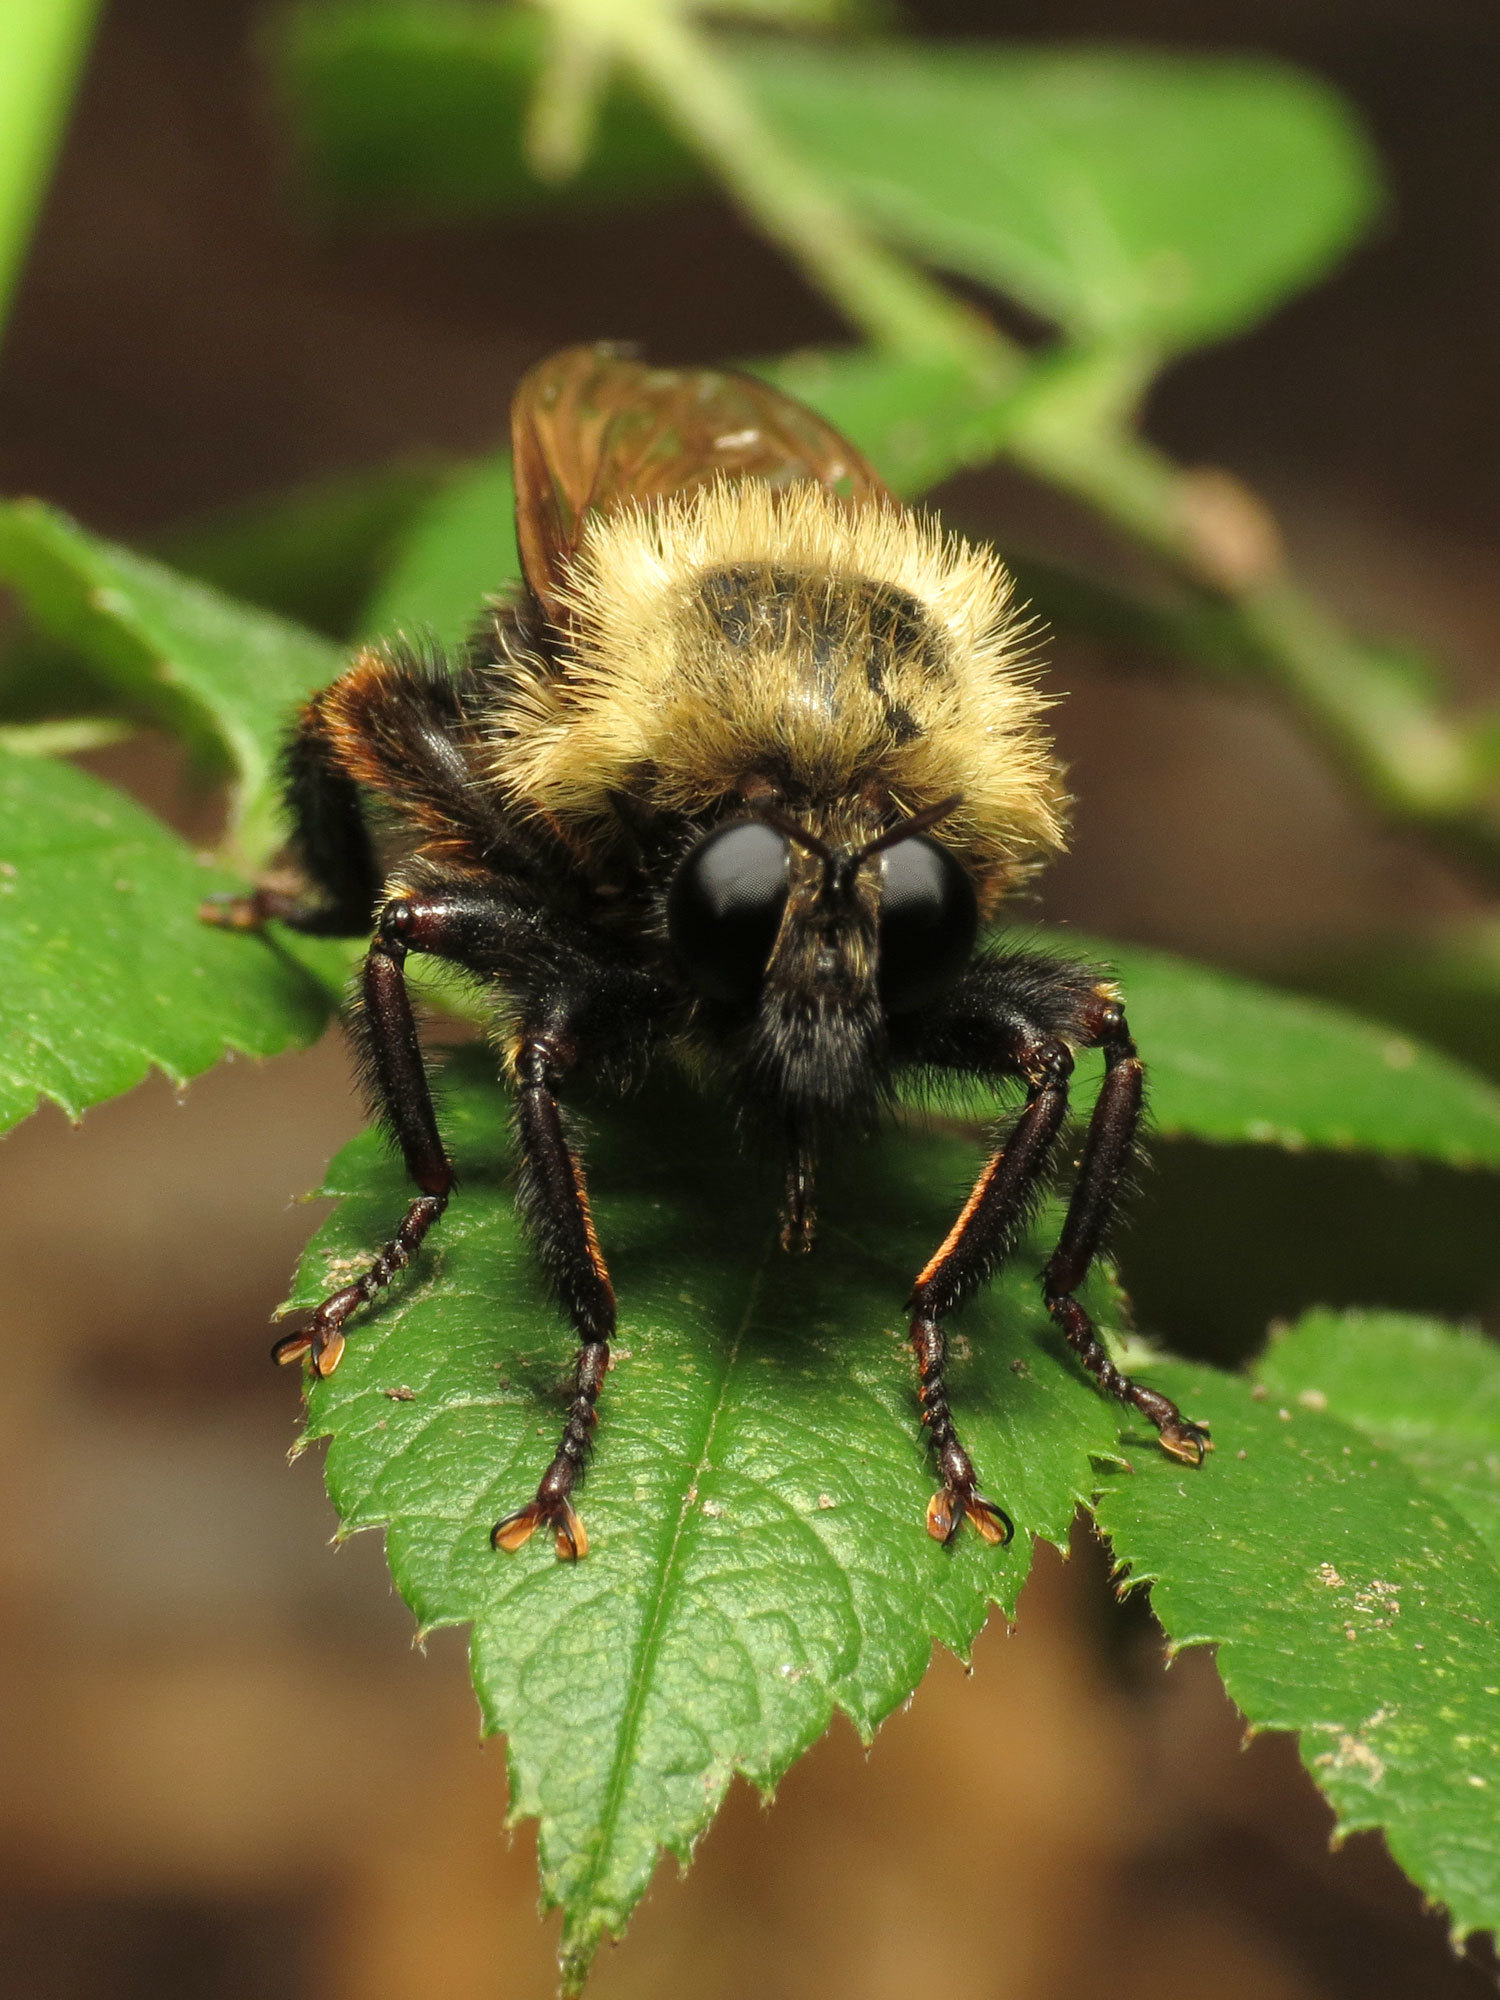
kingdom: Animalia
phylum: Arthropoda
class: Insecta
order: Diptera
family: Asilidae
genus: Laphria
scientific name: Laphria thoracica
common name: Bumble bee mimic robber fly
